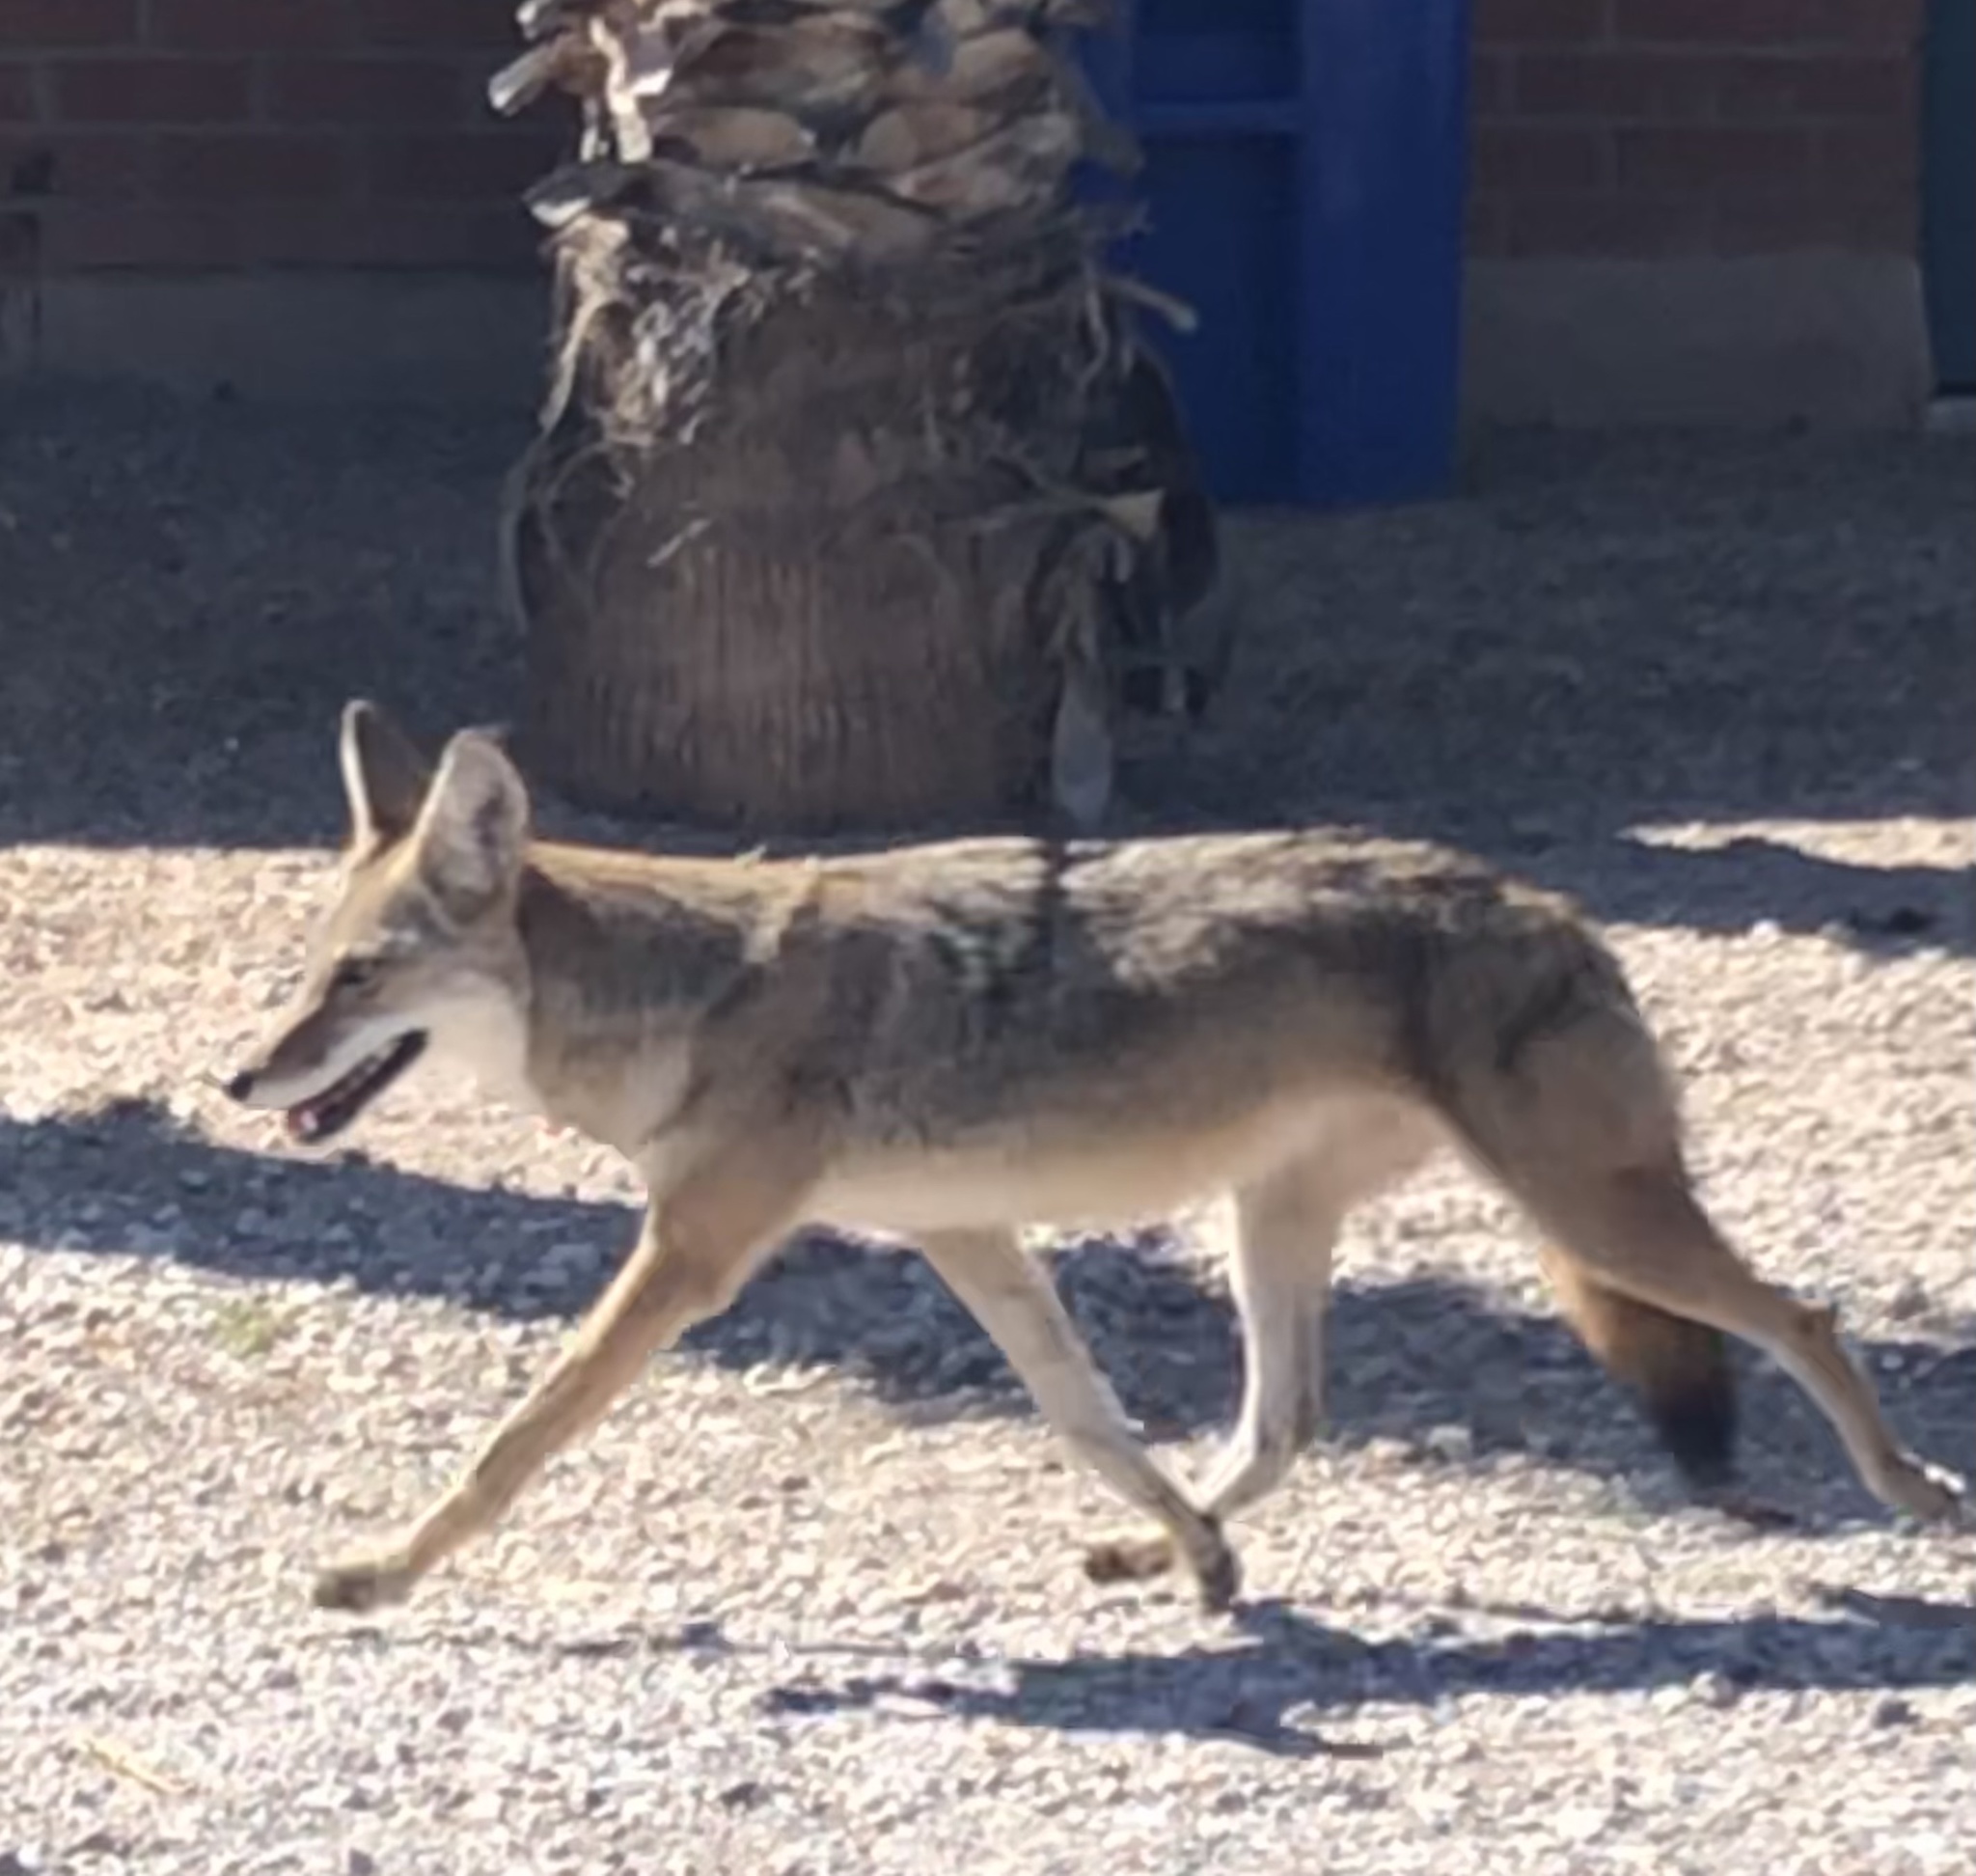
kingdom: Animalia
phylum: Chordata
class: Mammalia
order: Carnivora
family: Canidae
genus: Canis
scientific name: Canis latrans
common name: Coyote
